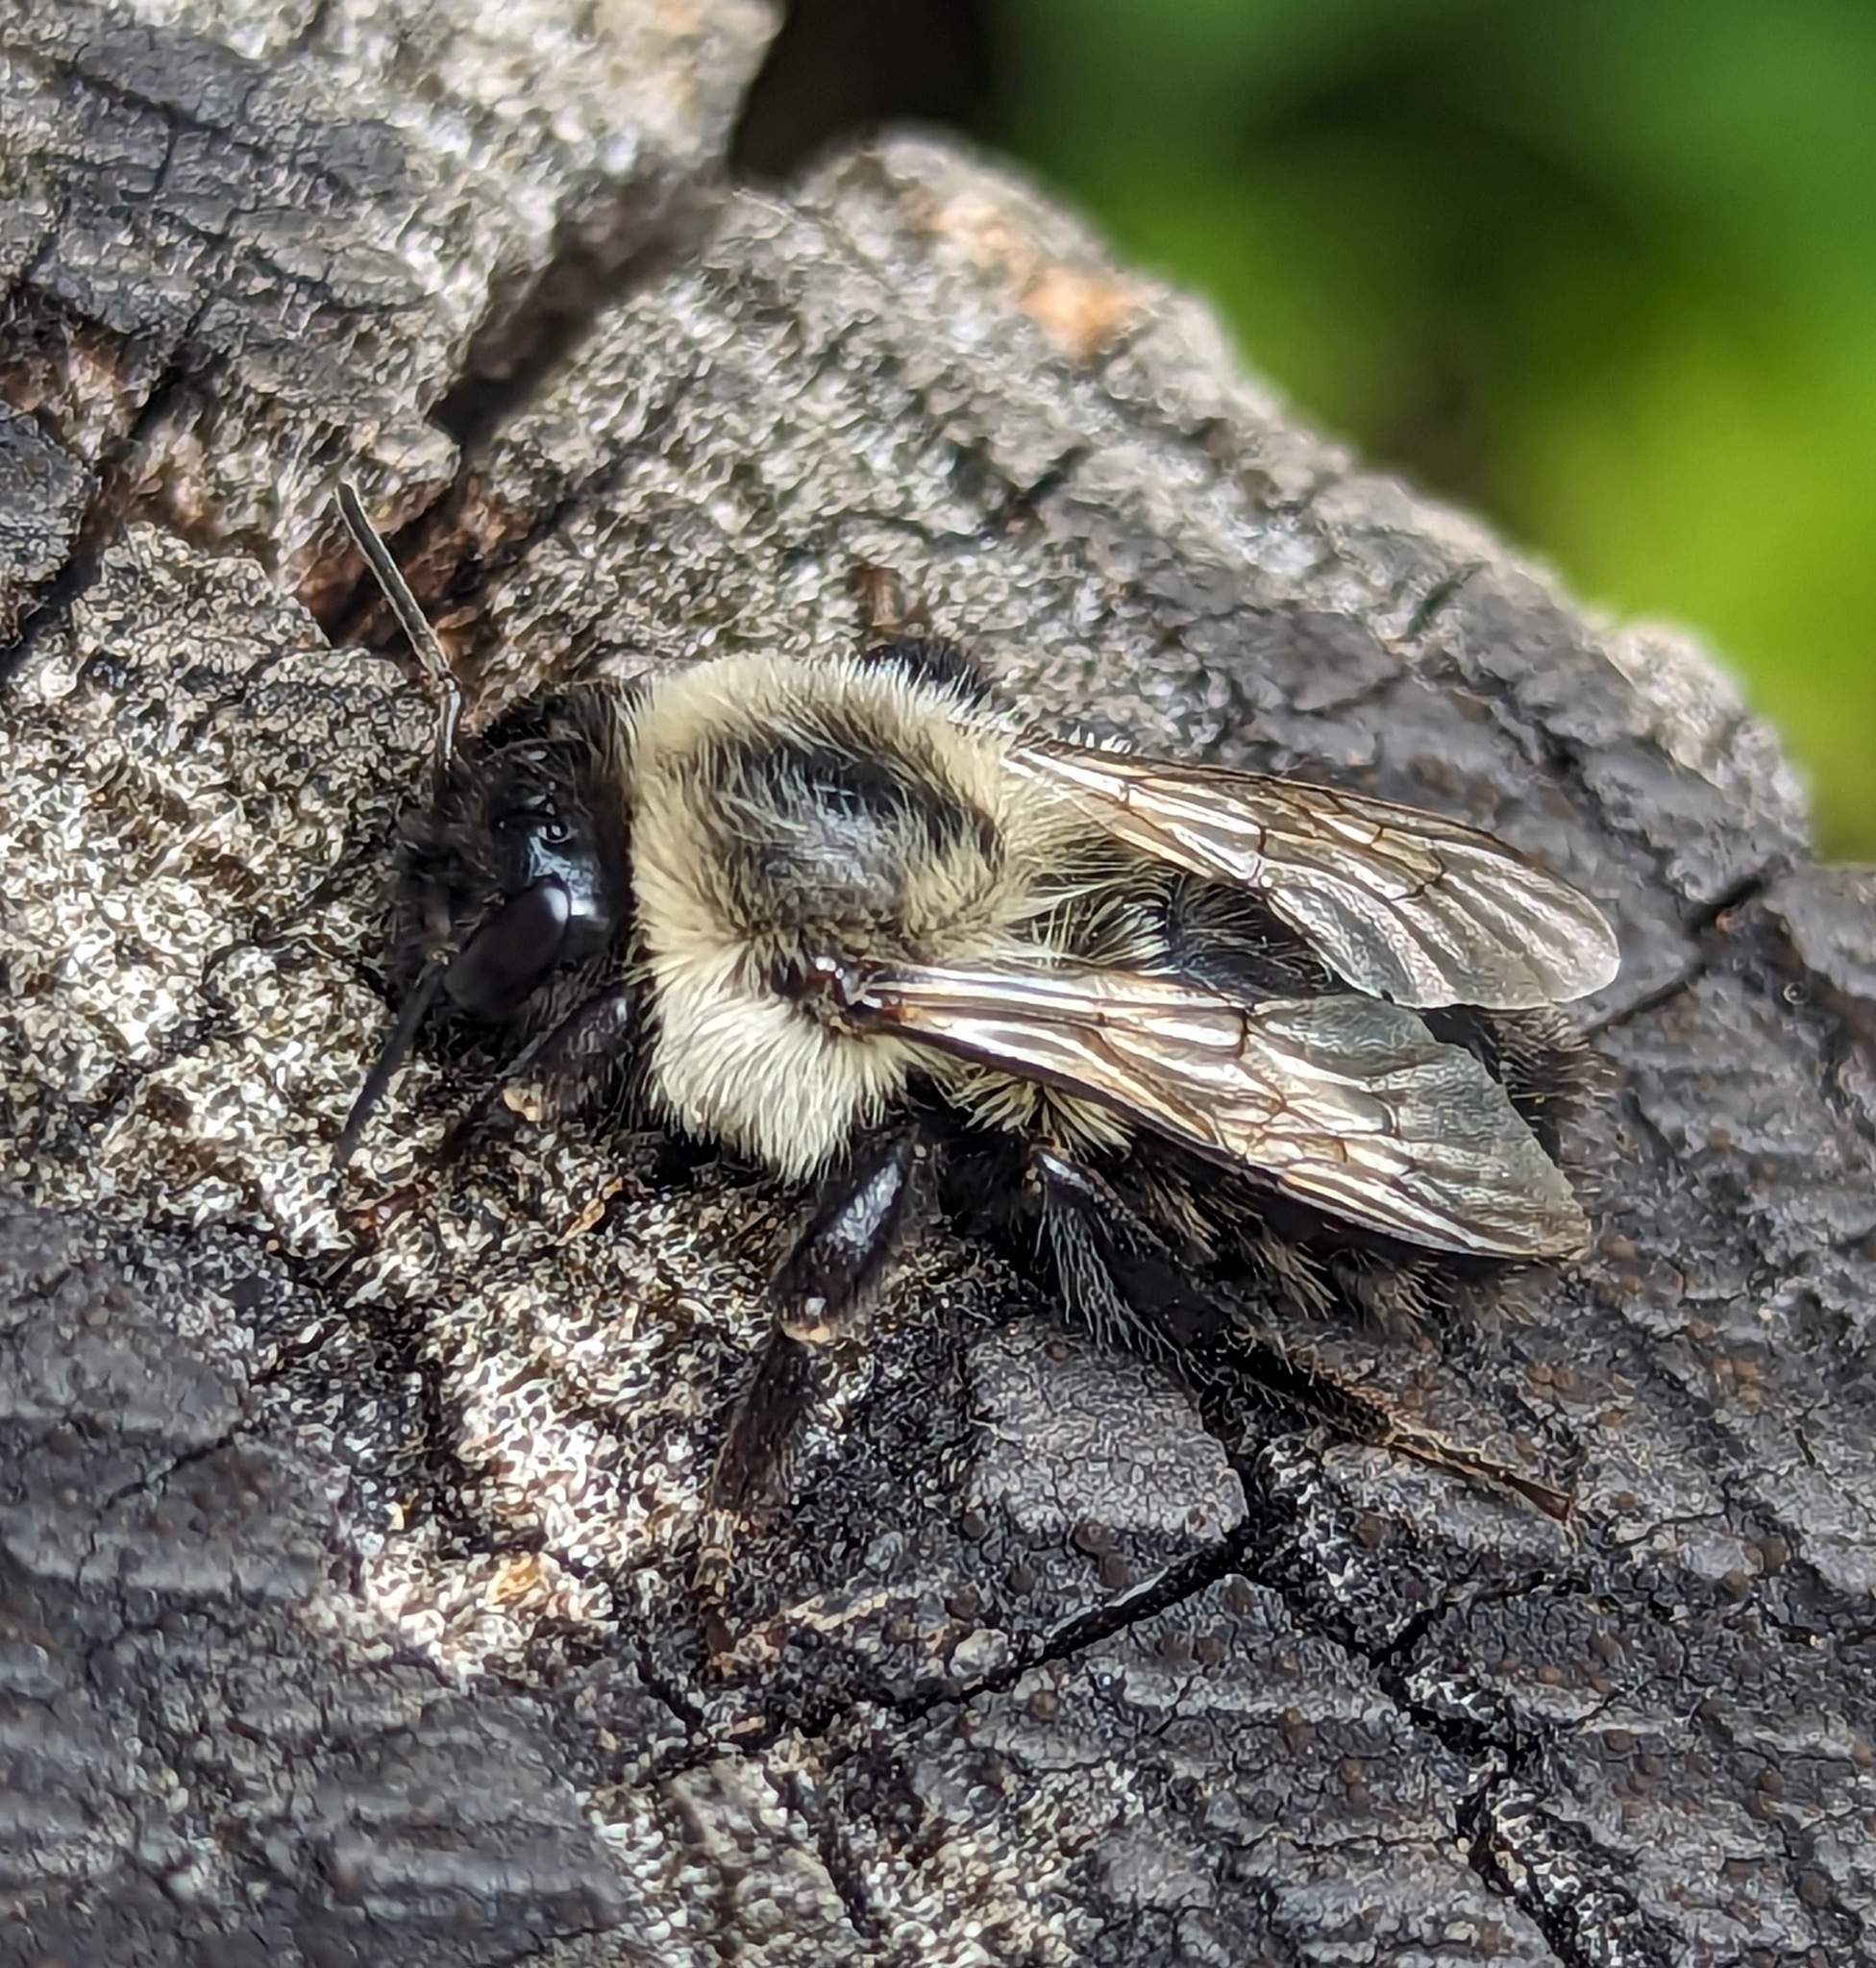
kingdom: Animalia
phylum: Arthropoda
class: Insecta
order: Hymenoptera
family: Apidae
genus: Bombus
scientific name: Bombus impatiens
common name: Common eastern bumble bee
